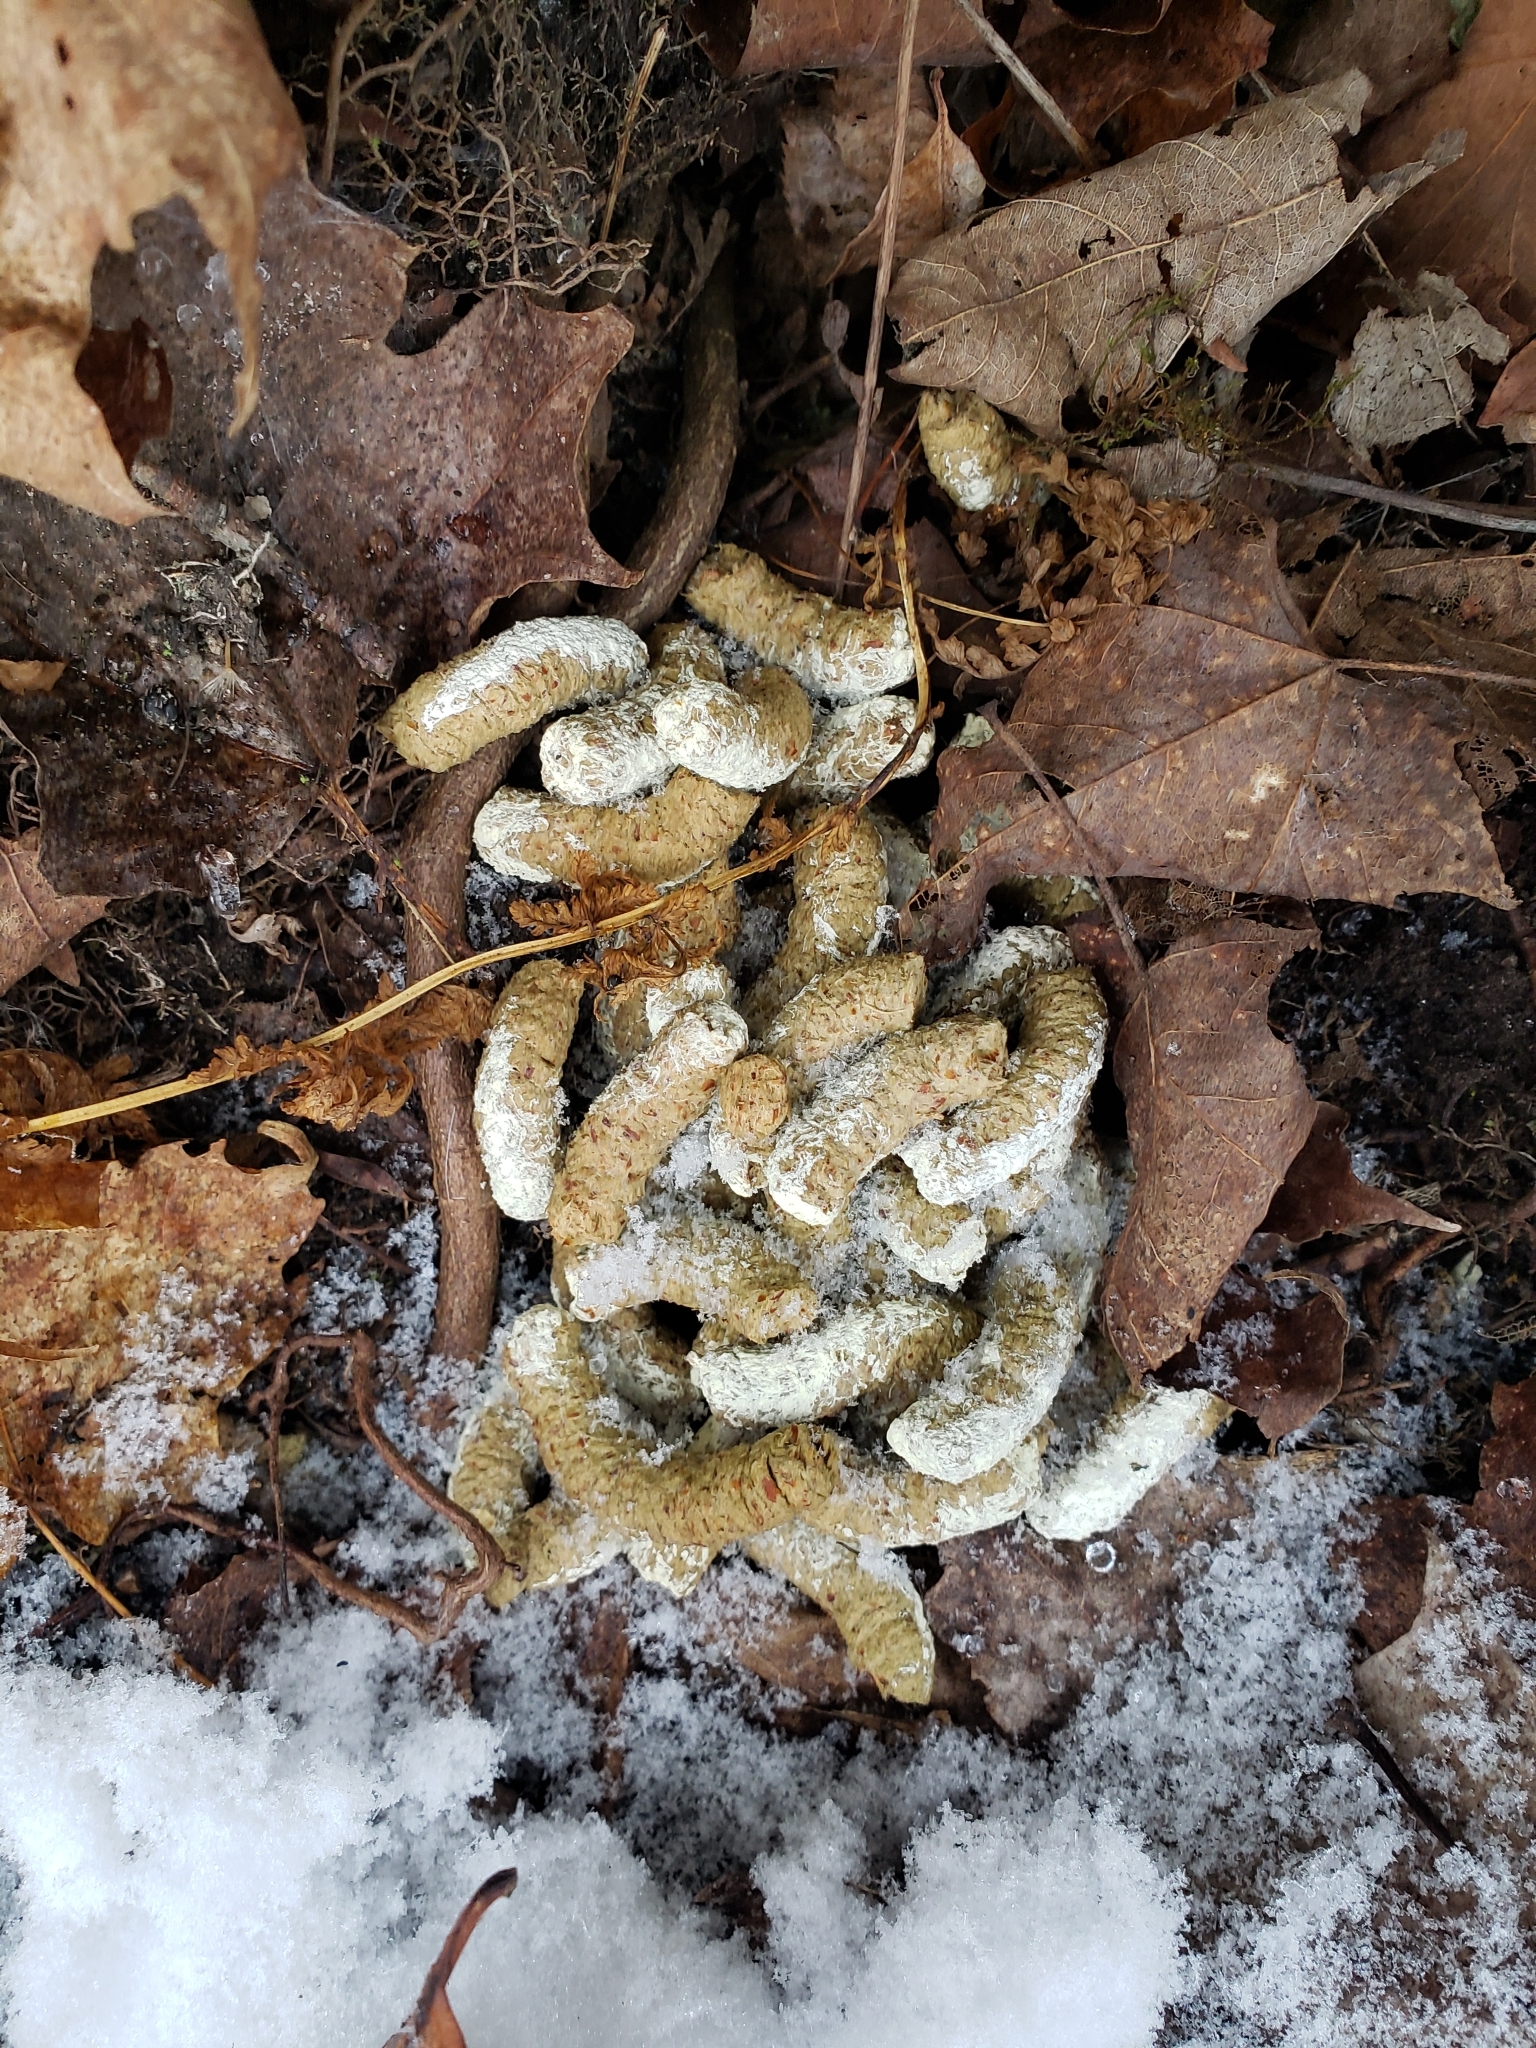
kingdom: Animalia
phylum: Chordata
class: Aves
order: Galliformes
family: Phasianidae
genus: Bonasa
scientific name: Bonasa umbellus
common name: Ruffed grouse
